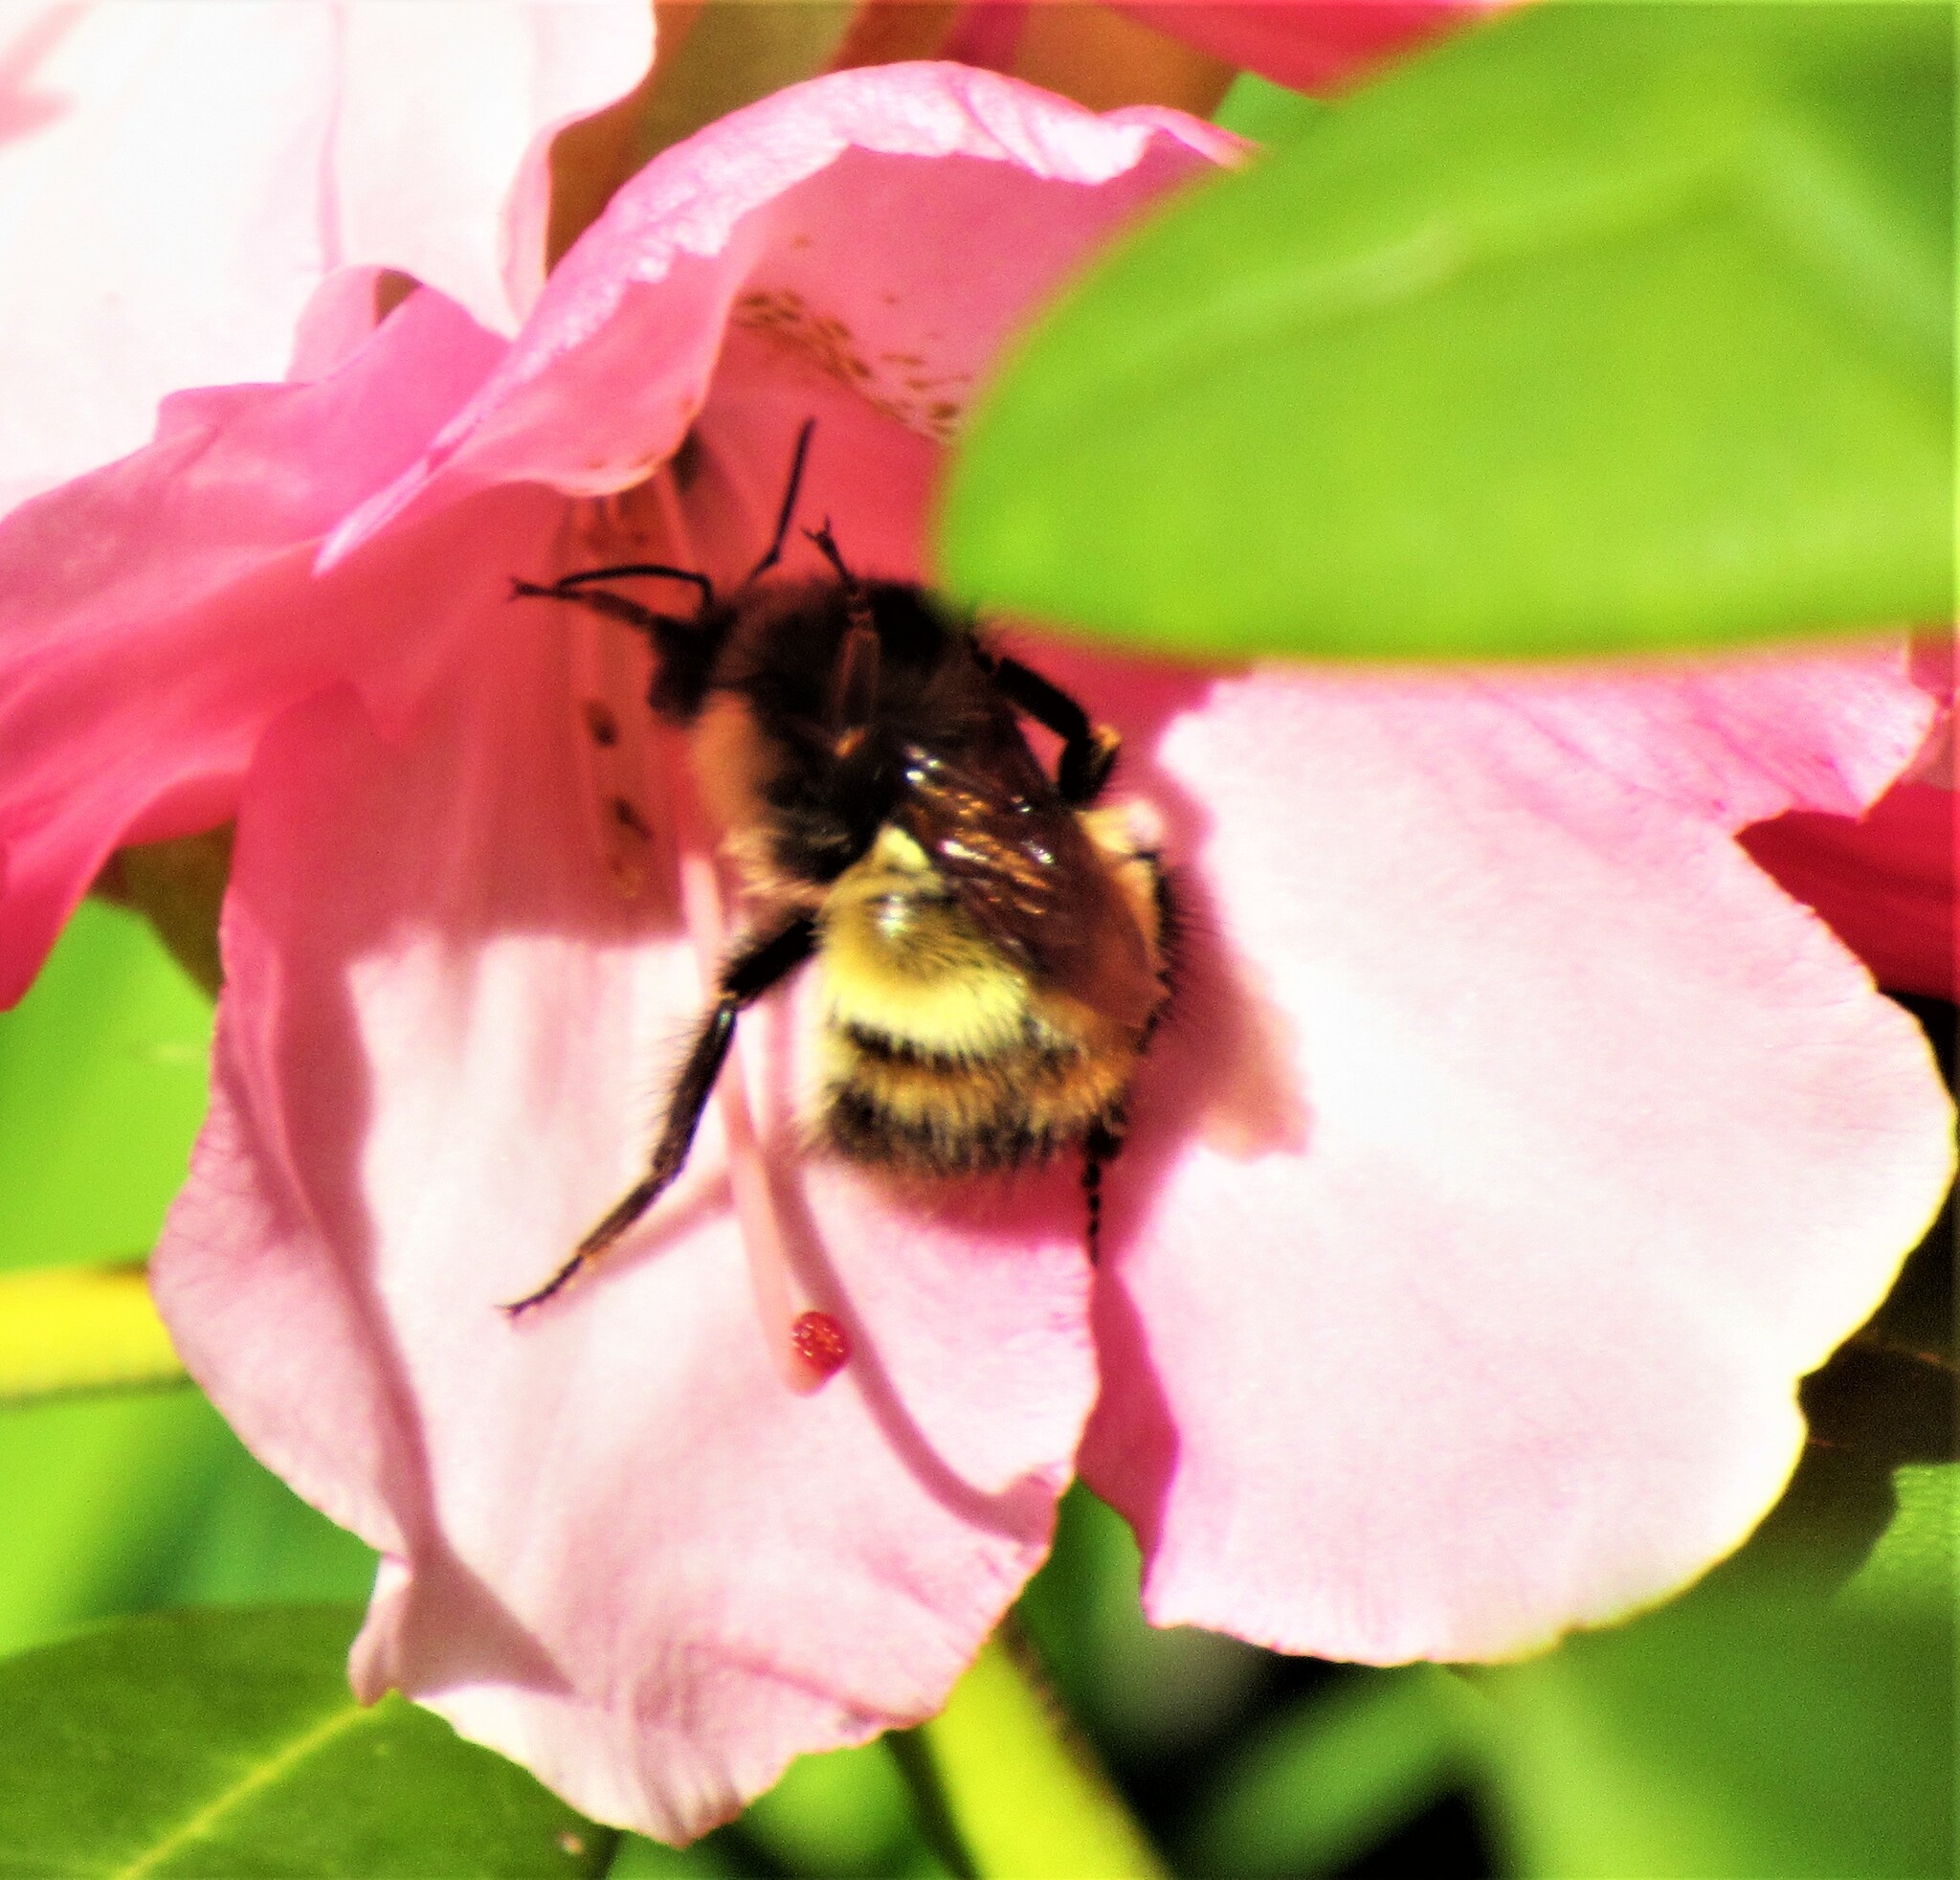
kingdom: Animalia
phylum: Arthropoda
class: Insecta
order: Hymenoptera
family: Apidae
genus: Bombus
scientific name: Bombus flavifrons
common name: Yellow head bumble bee
